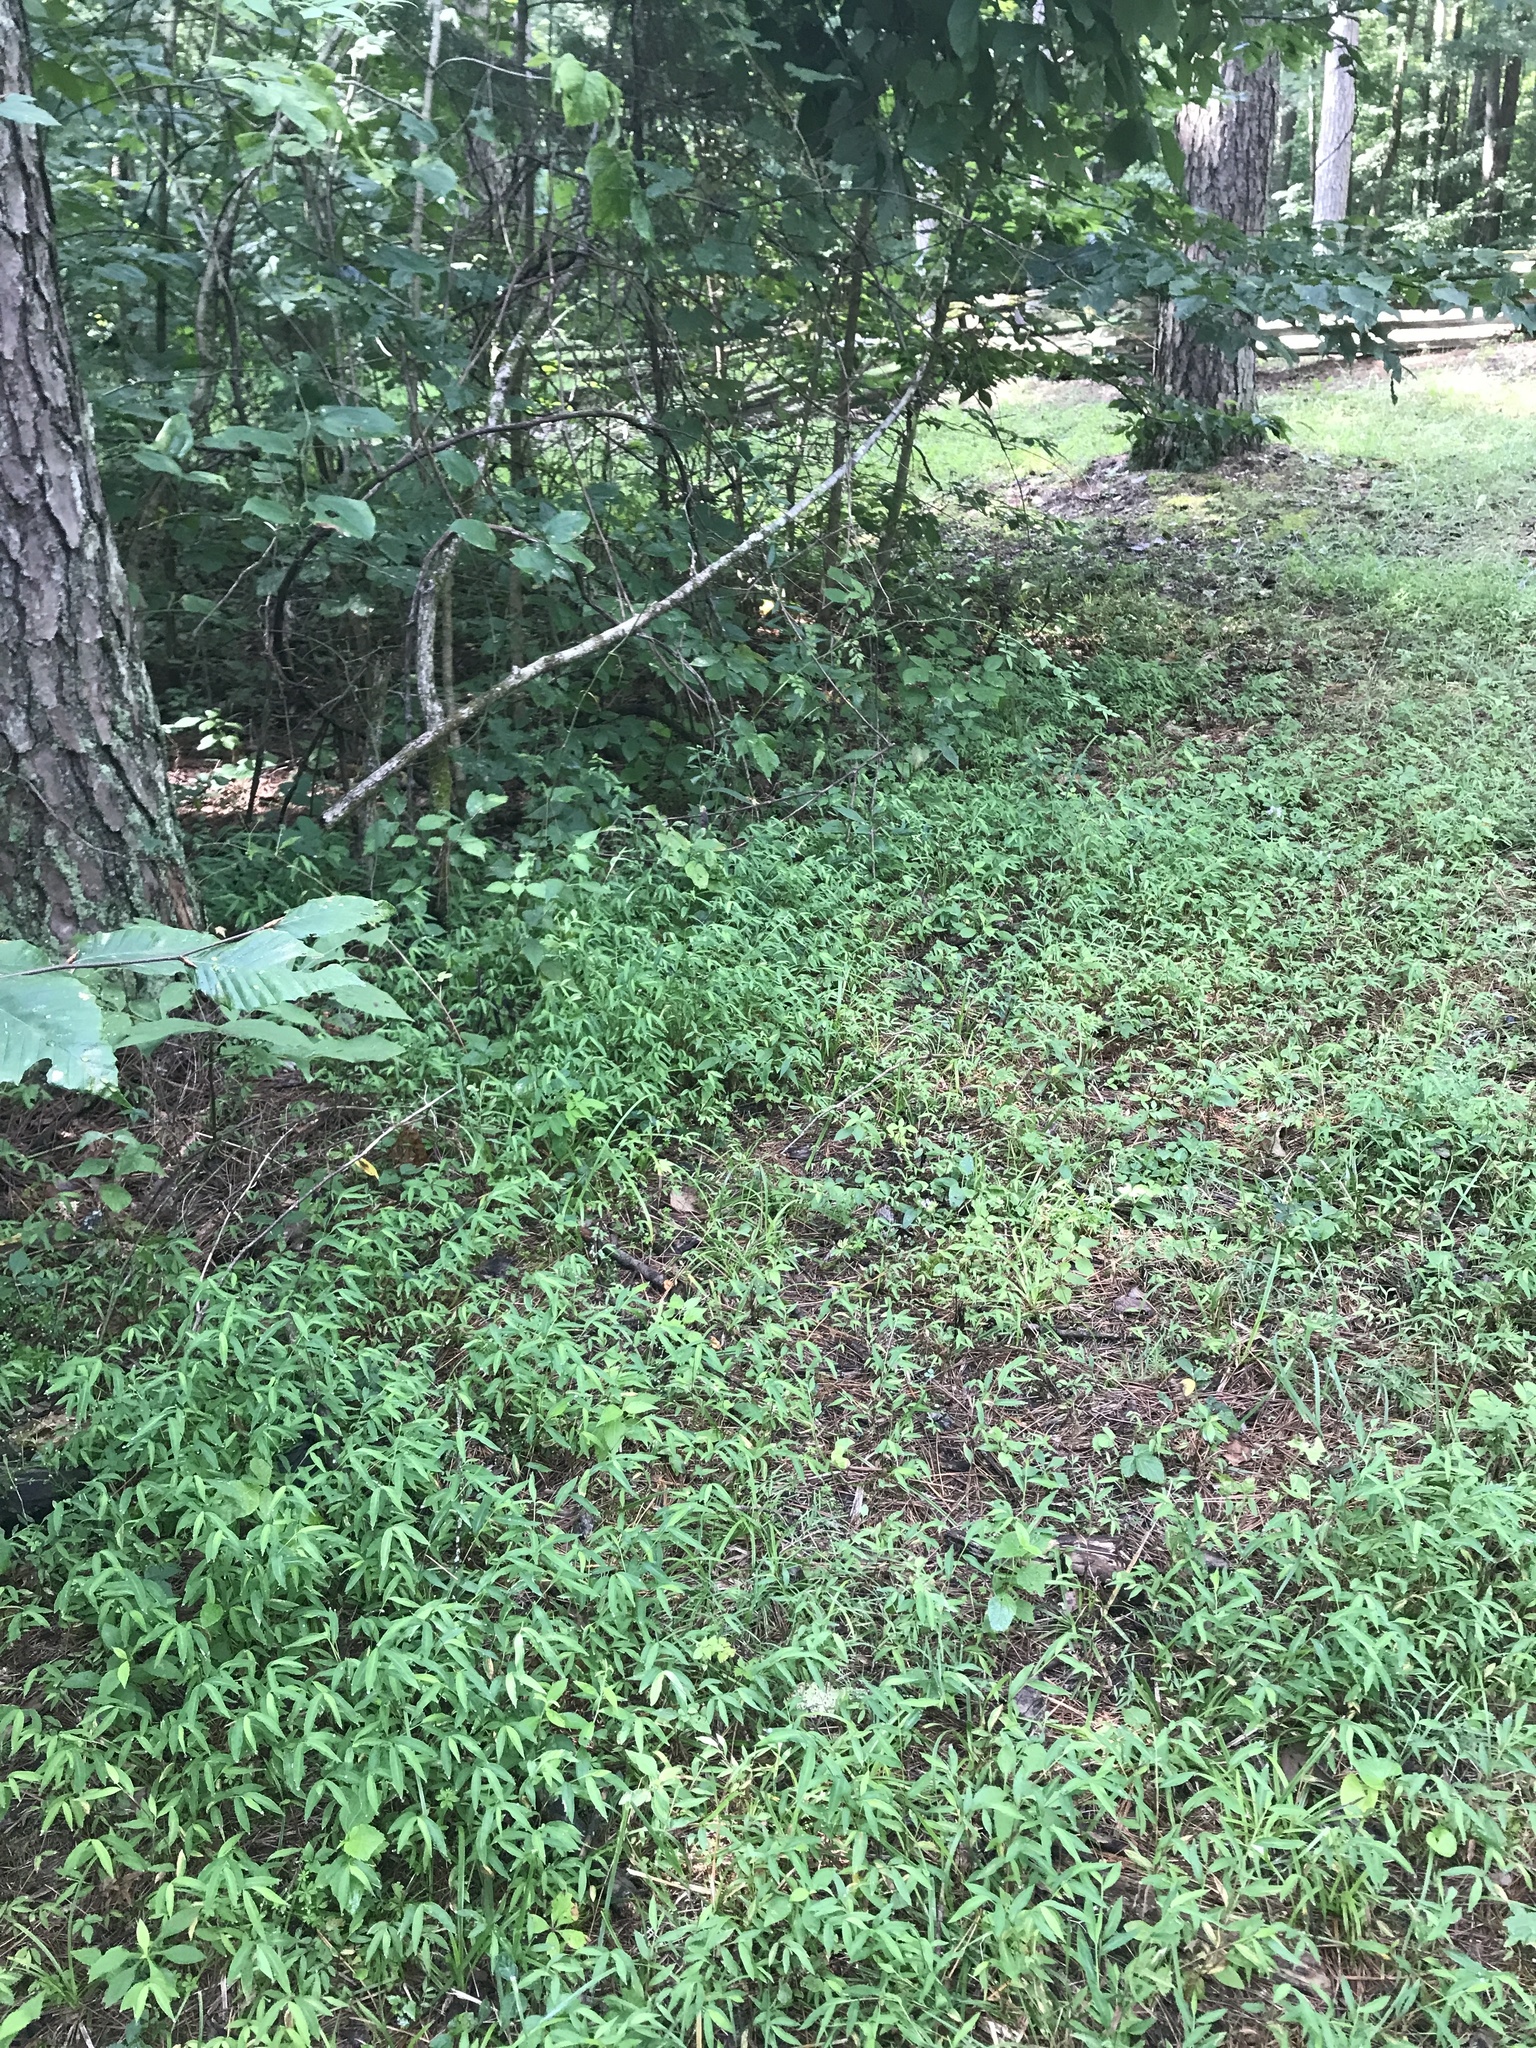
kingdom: Plantae
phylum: Tracheophyta
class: Liliopsida
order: Poales
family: Poaceae
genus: Microstegium
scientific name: Microstegium vimineum
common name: Japanese stiltgrass
